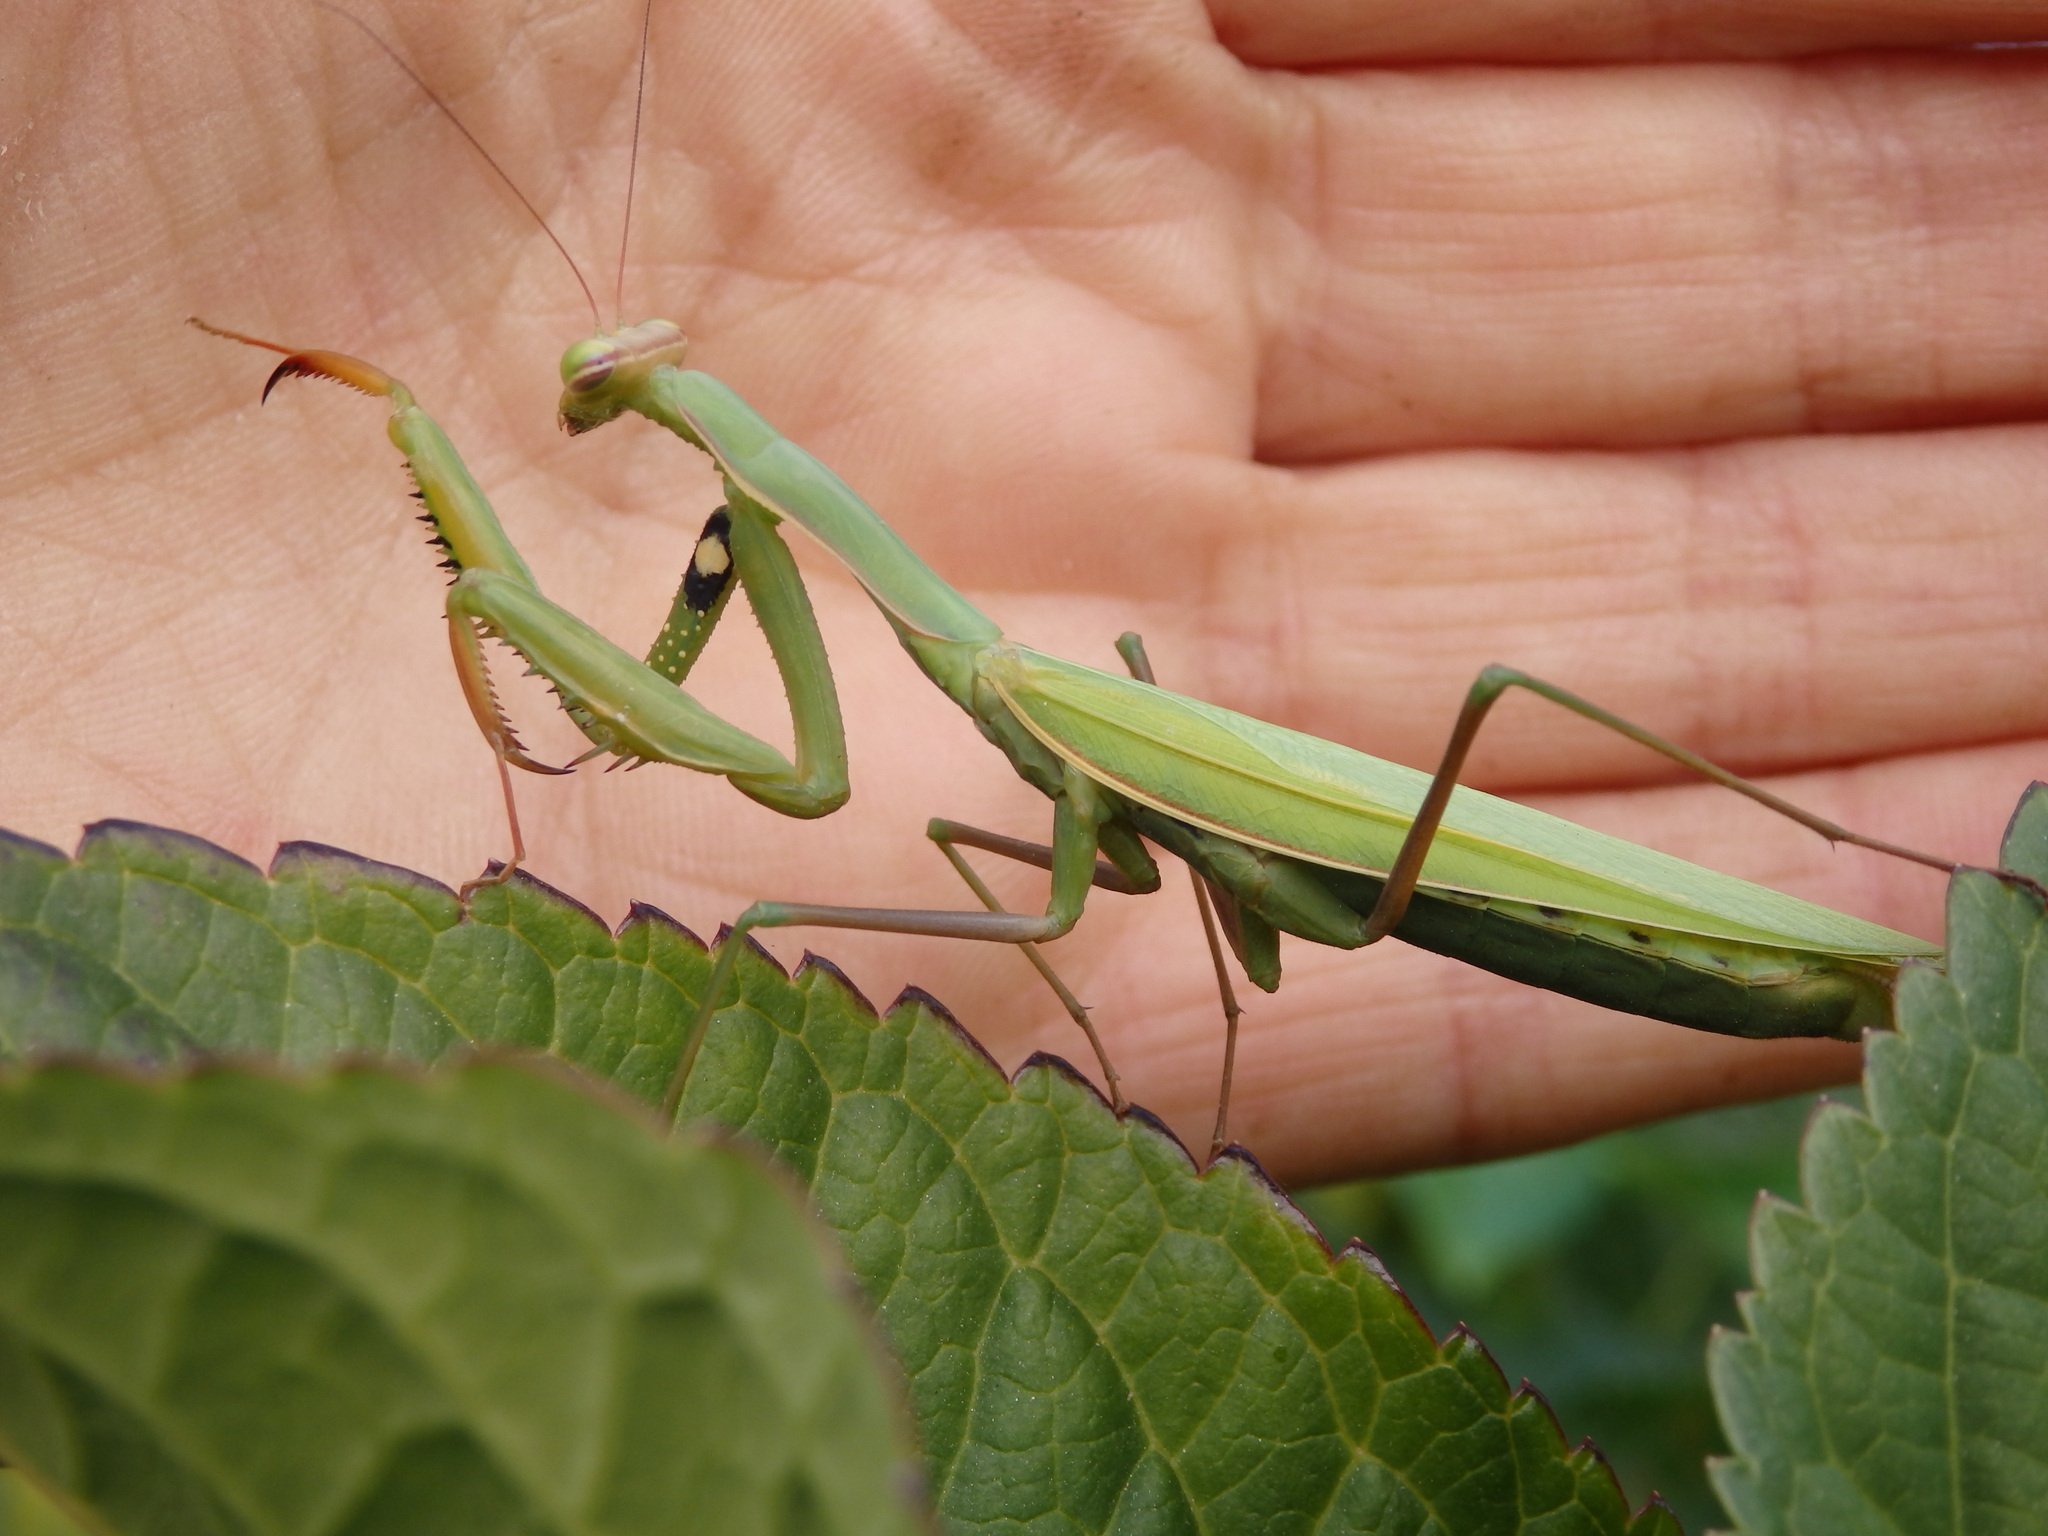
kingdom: Animalia
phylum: Arthropoda
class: Insecta
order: Mantodea
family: Mantidae
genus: Mantis
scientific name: Mantis religiosa
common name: Praying mantis
